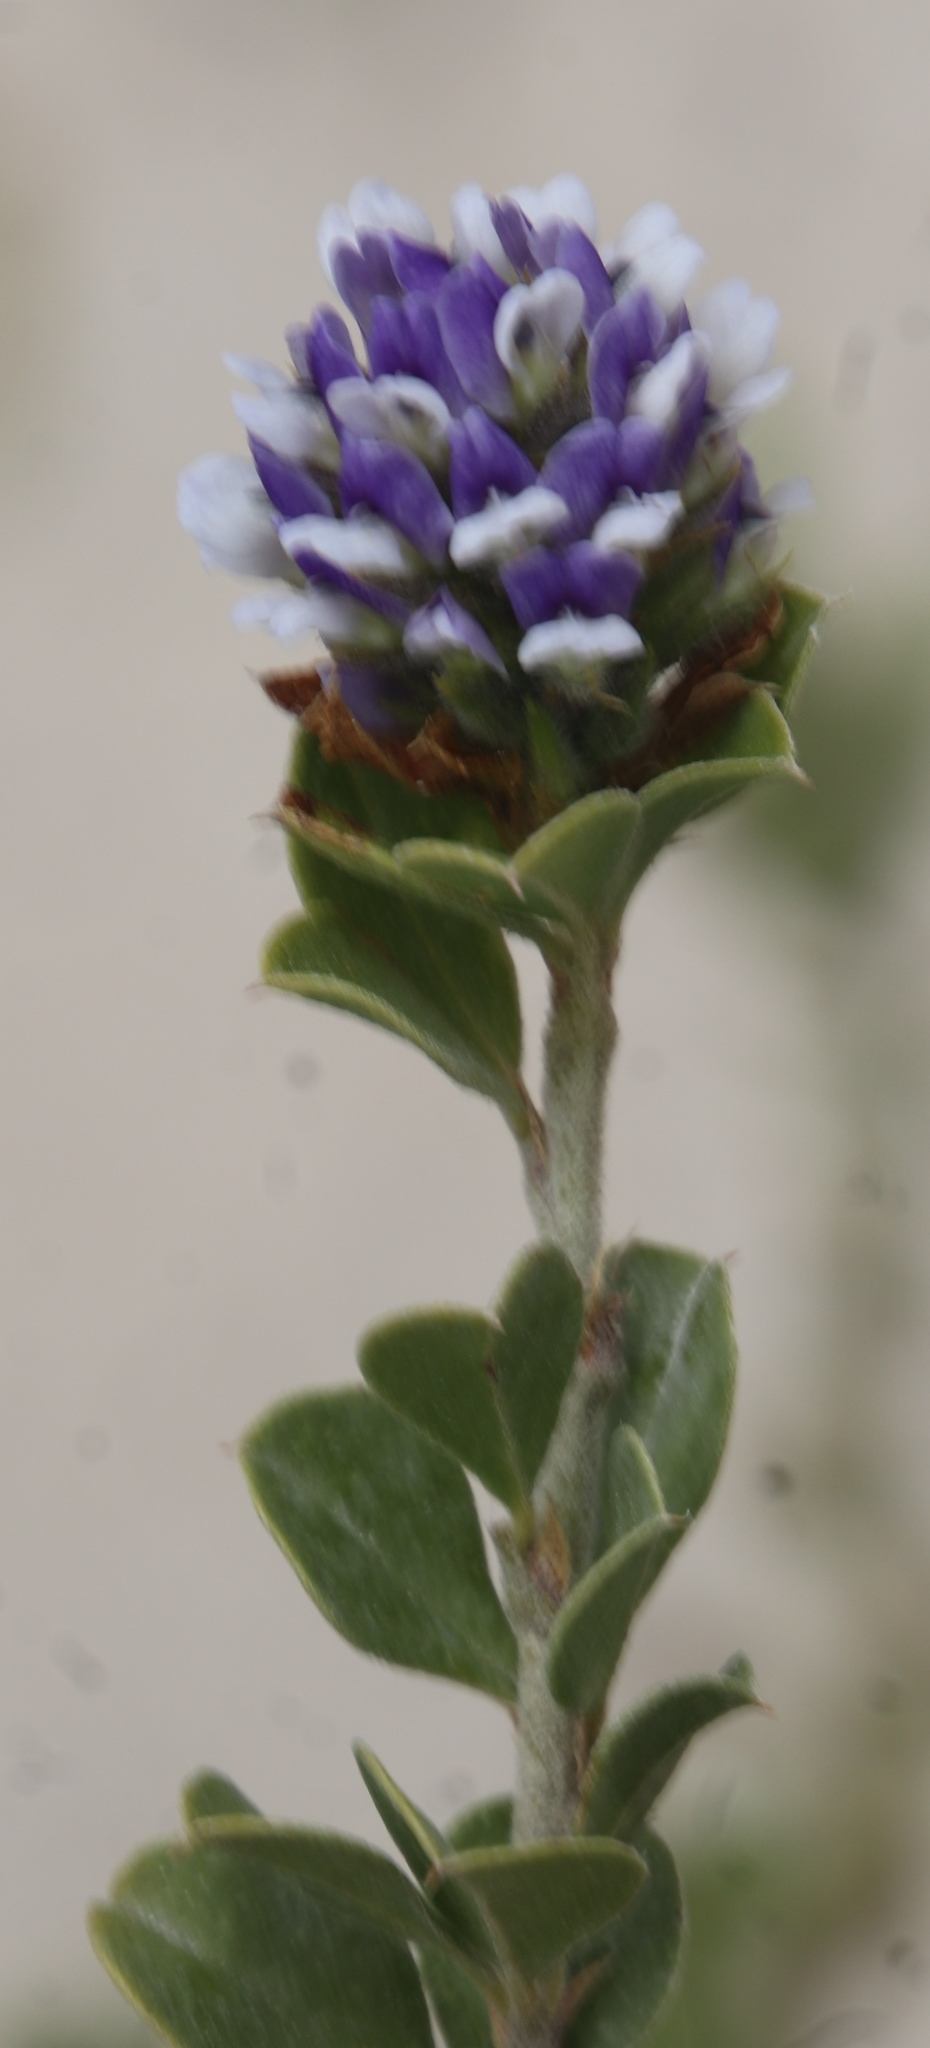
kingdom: Plantae
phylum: Tracheophyta
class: Magnoliopsida
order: Fabales
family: Fabaceae
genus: Psoralea
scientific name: Psoralea bracteolata
